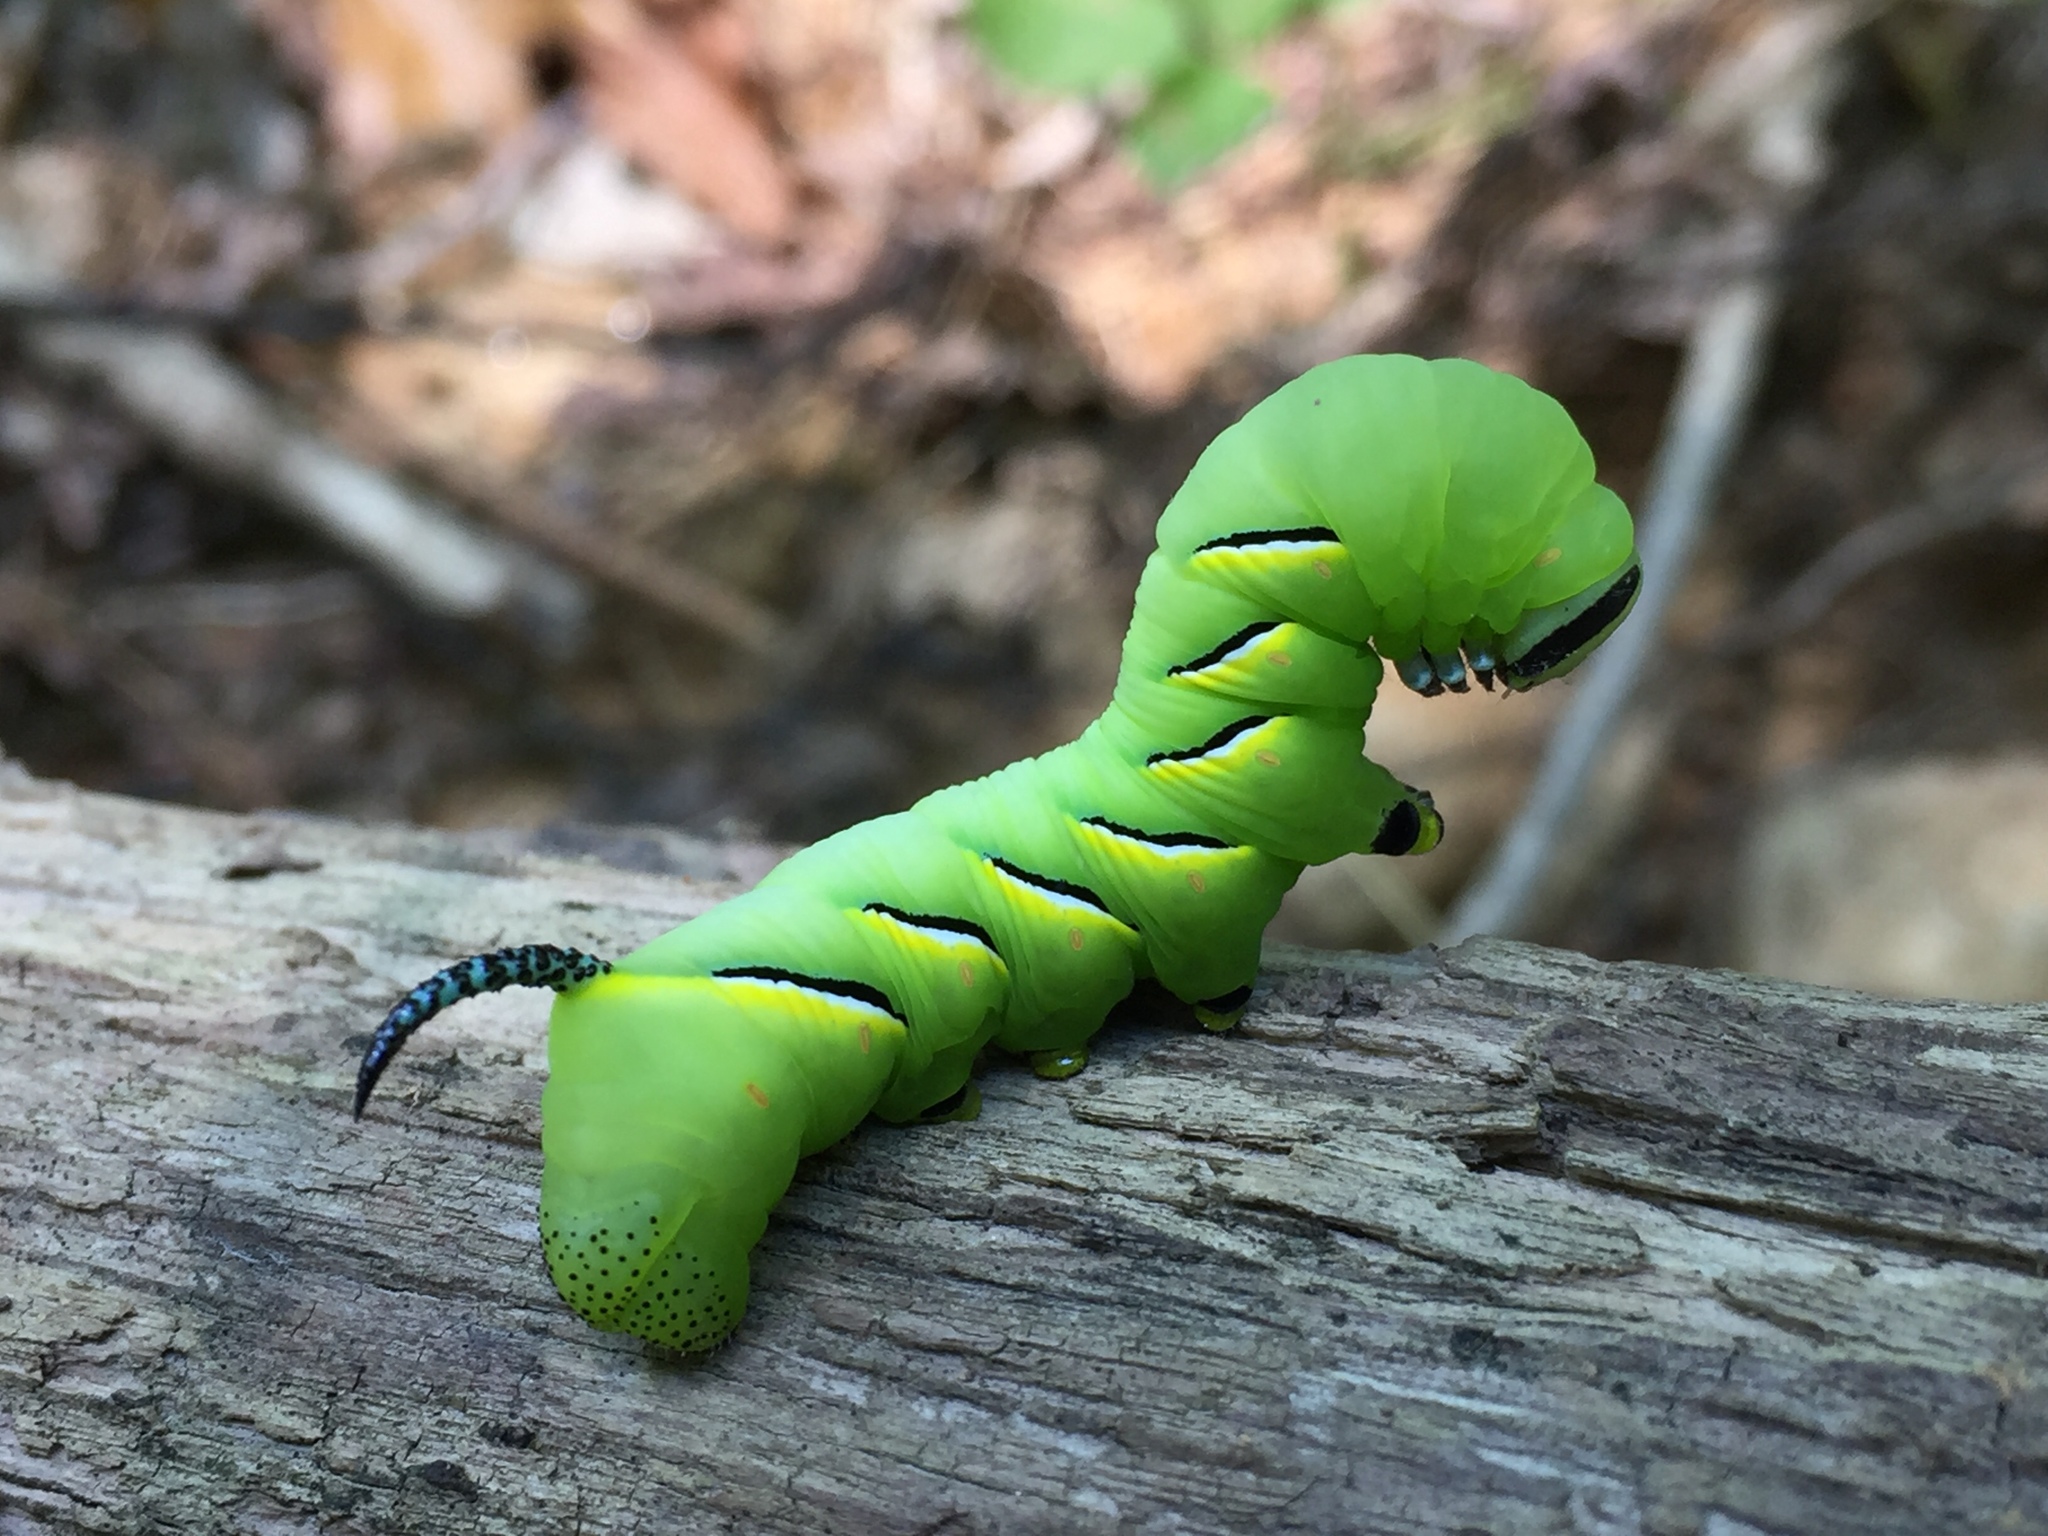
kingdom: Animalia
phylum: Arthropoda
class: Insecta
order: Lepidoptera
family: Sphingidae
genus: Sphinx
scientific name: Sphinx kalmiae
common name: Laurel sphinx
